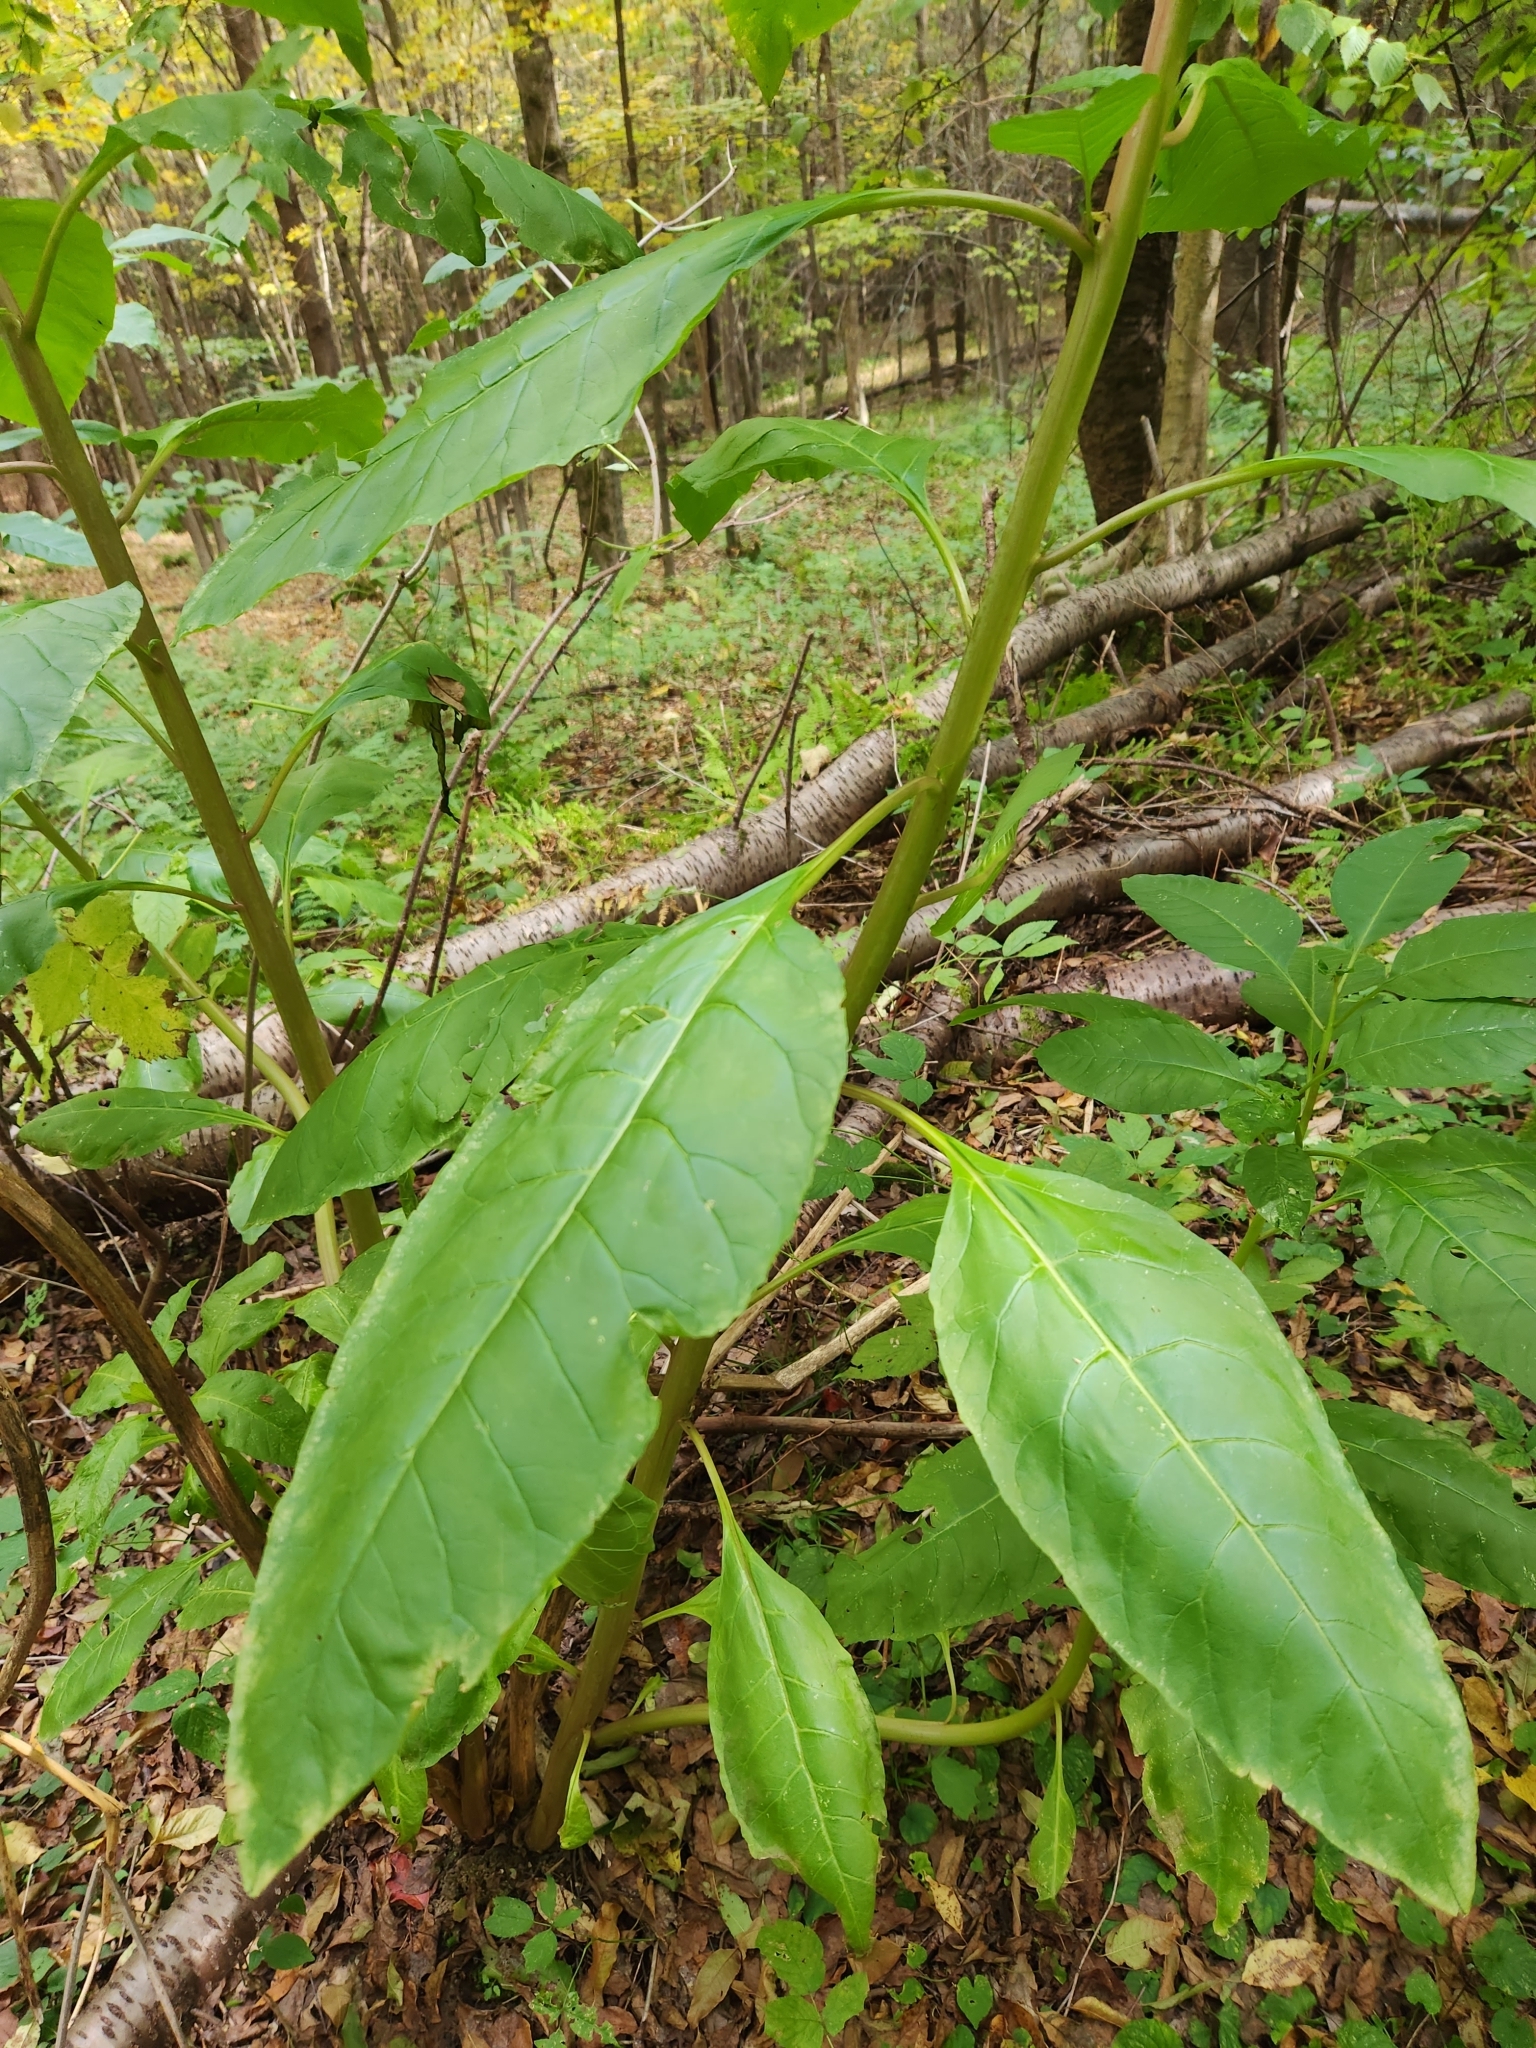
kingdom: Plantae
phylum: Tracheophyta
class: Magnoliopsida
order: Caryophyllales
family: Phytolaccaceae
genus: Phytolacca
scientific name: Phytolacca americana
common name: American pokeweed
